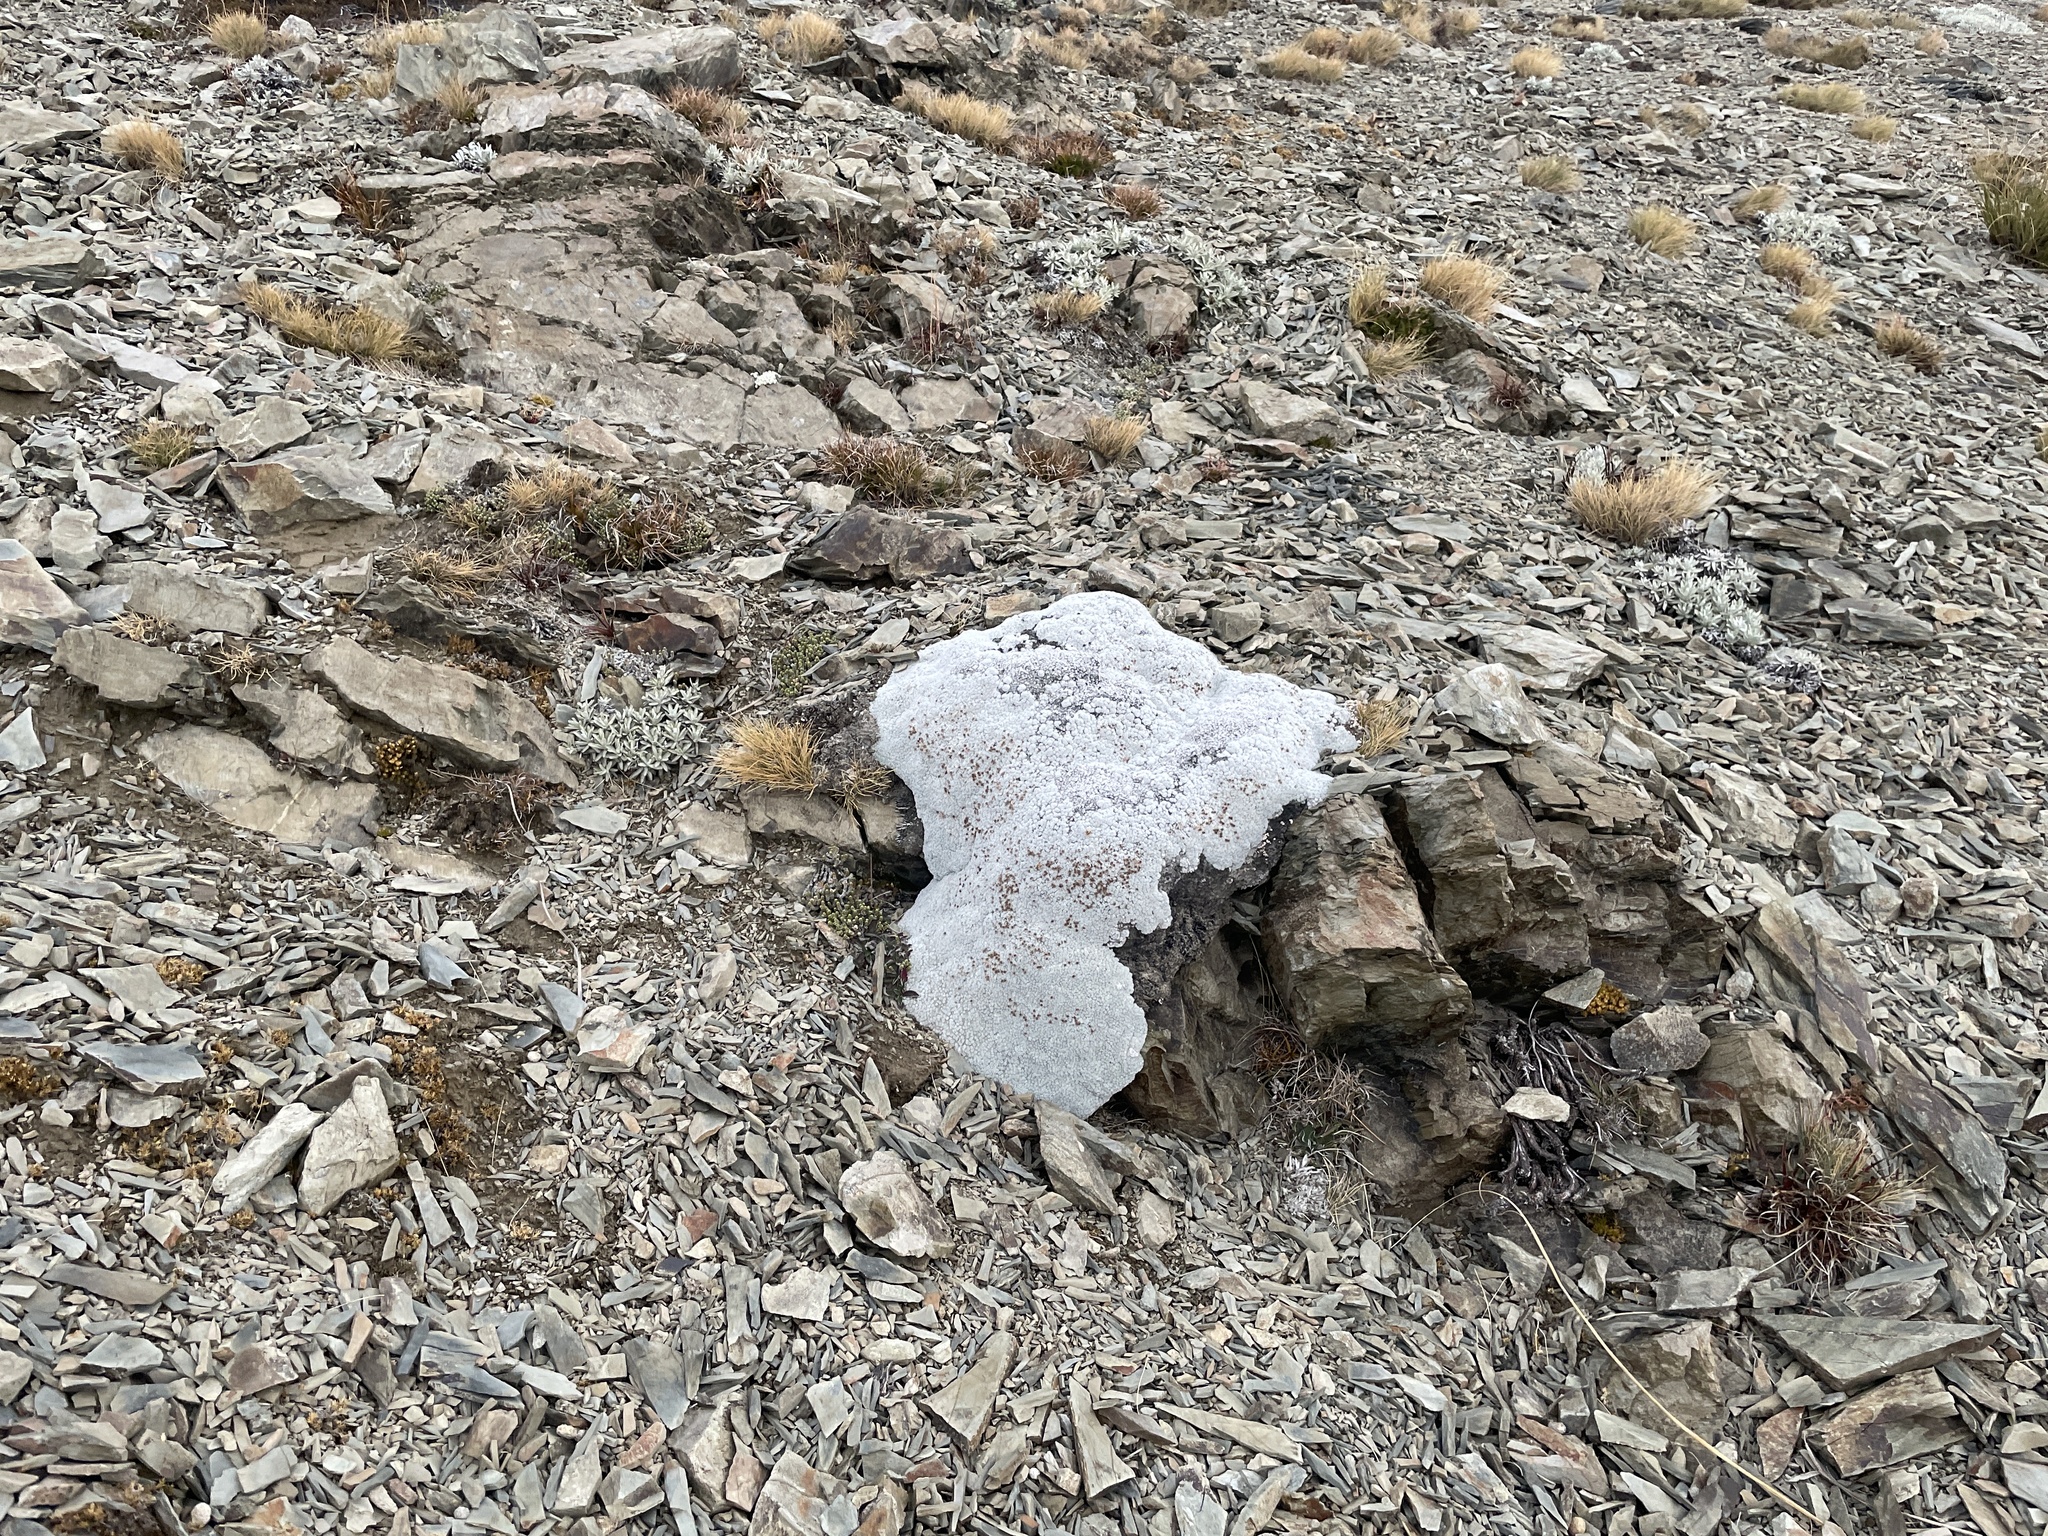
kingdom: Plantae
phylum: Tracheophyta
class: Magnoliopsida
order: Asterales
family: Asteraceae
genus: Raoulia
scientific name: Raoulia eximia
